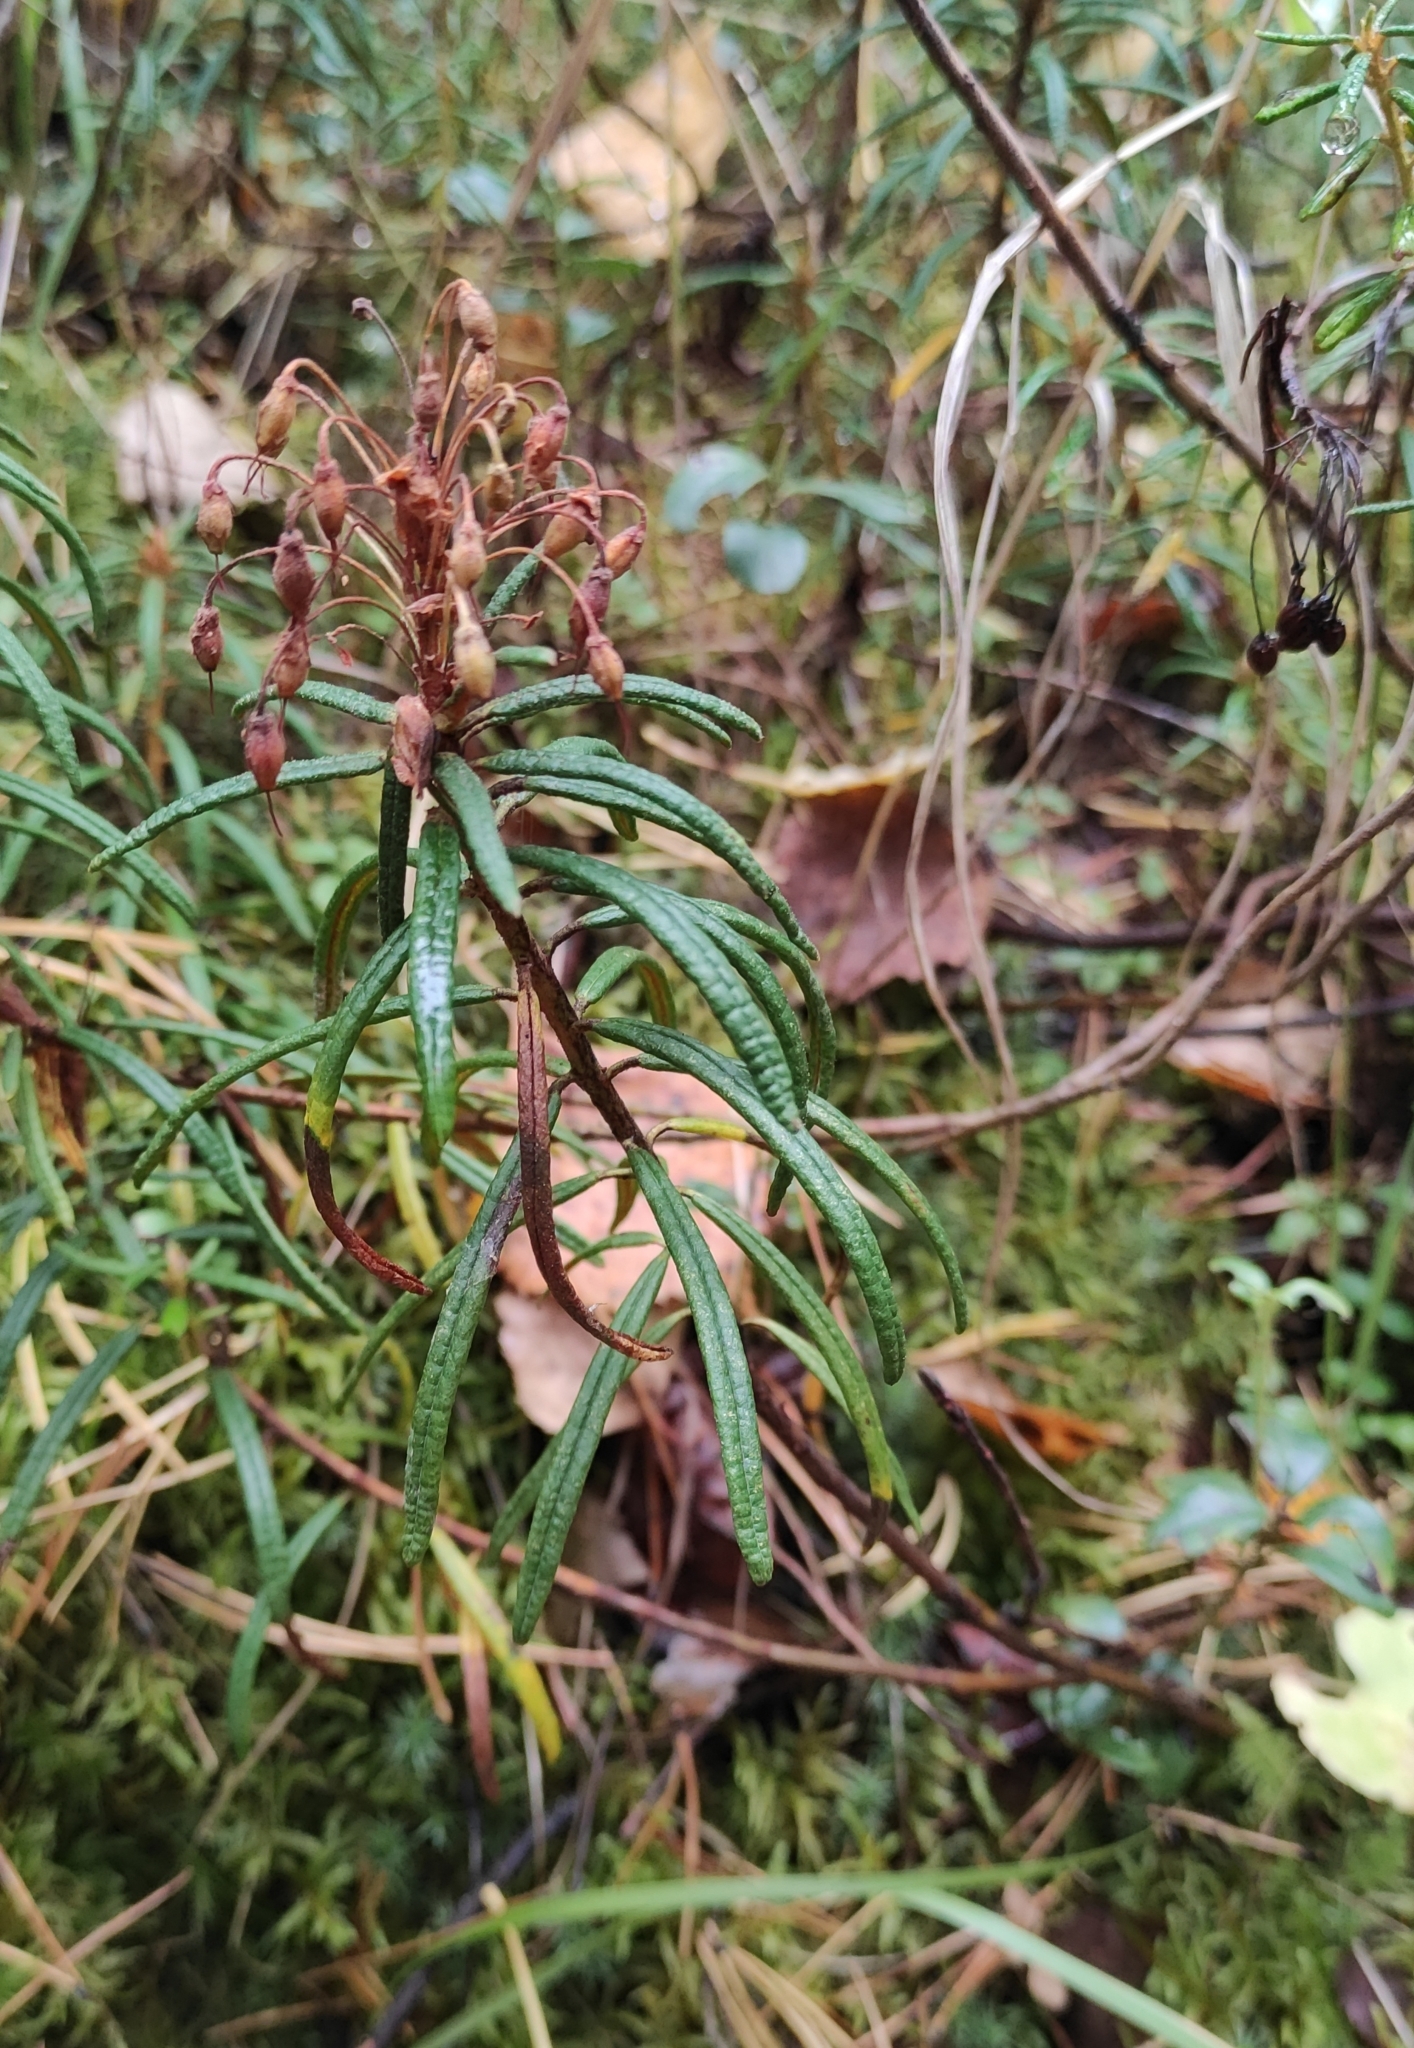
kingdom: Plantae
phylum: Tracheophyta
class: Magnoliopsida
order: Ericales
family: Ericaceae
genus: Rhododendron
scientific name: Rhododendron tomentosum
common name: Marsh labrador tea
